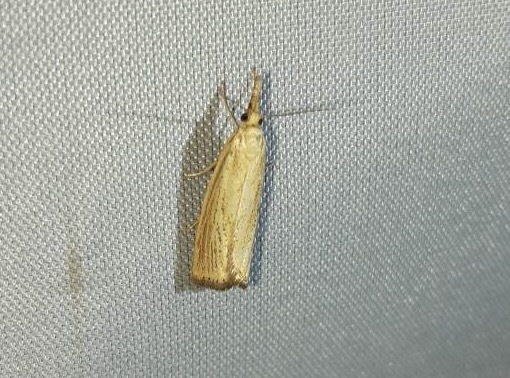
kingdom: Animalia
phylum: Arthropoda
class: Insecta
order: Lepidoptera
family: Crambidae
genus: Agriphila
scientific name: Agriphila straminella
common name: Straw grass-veneer
